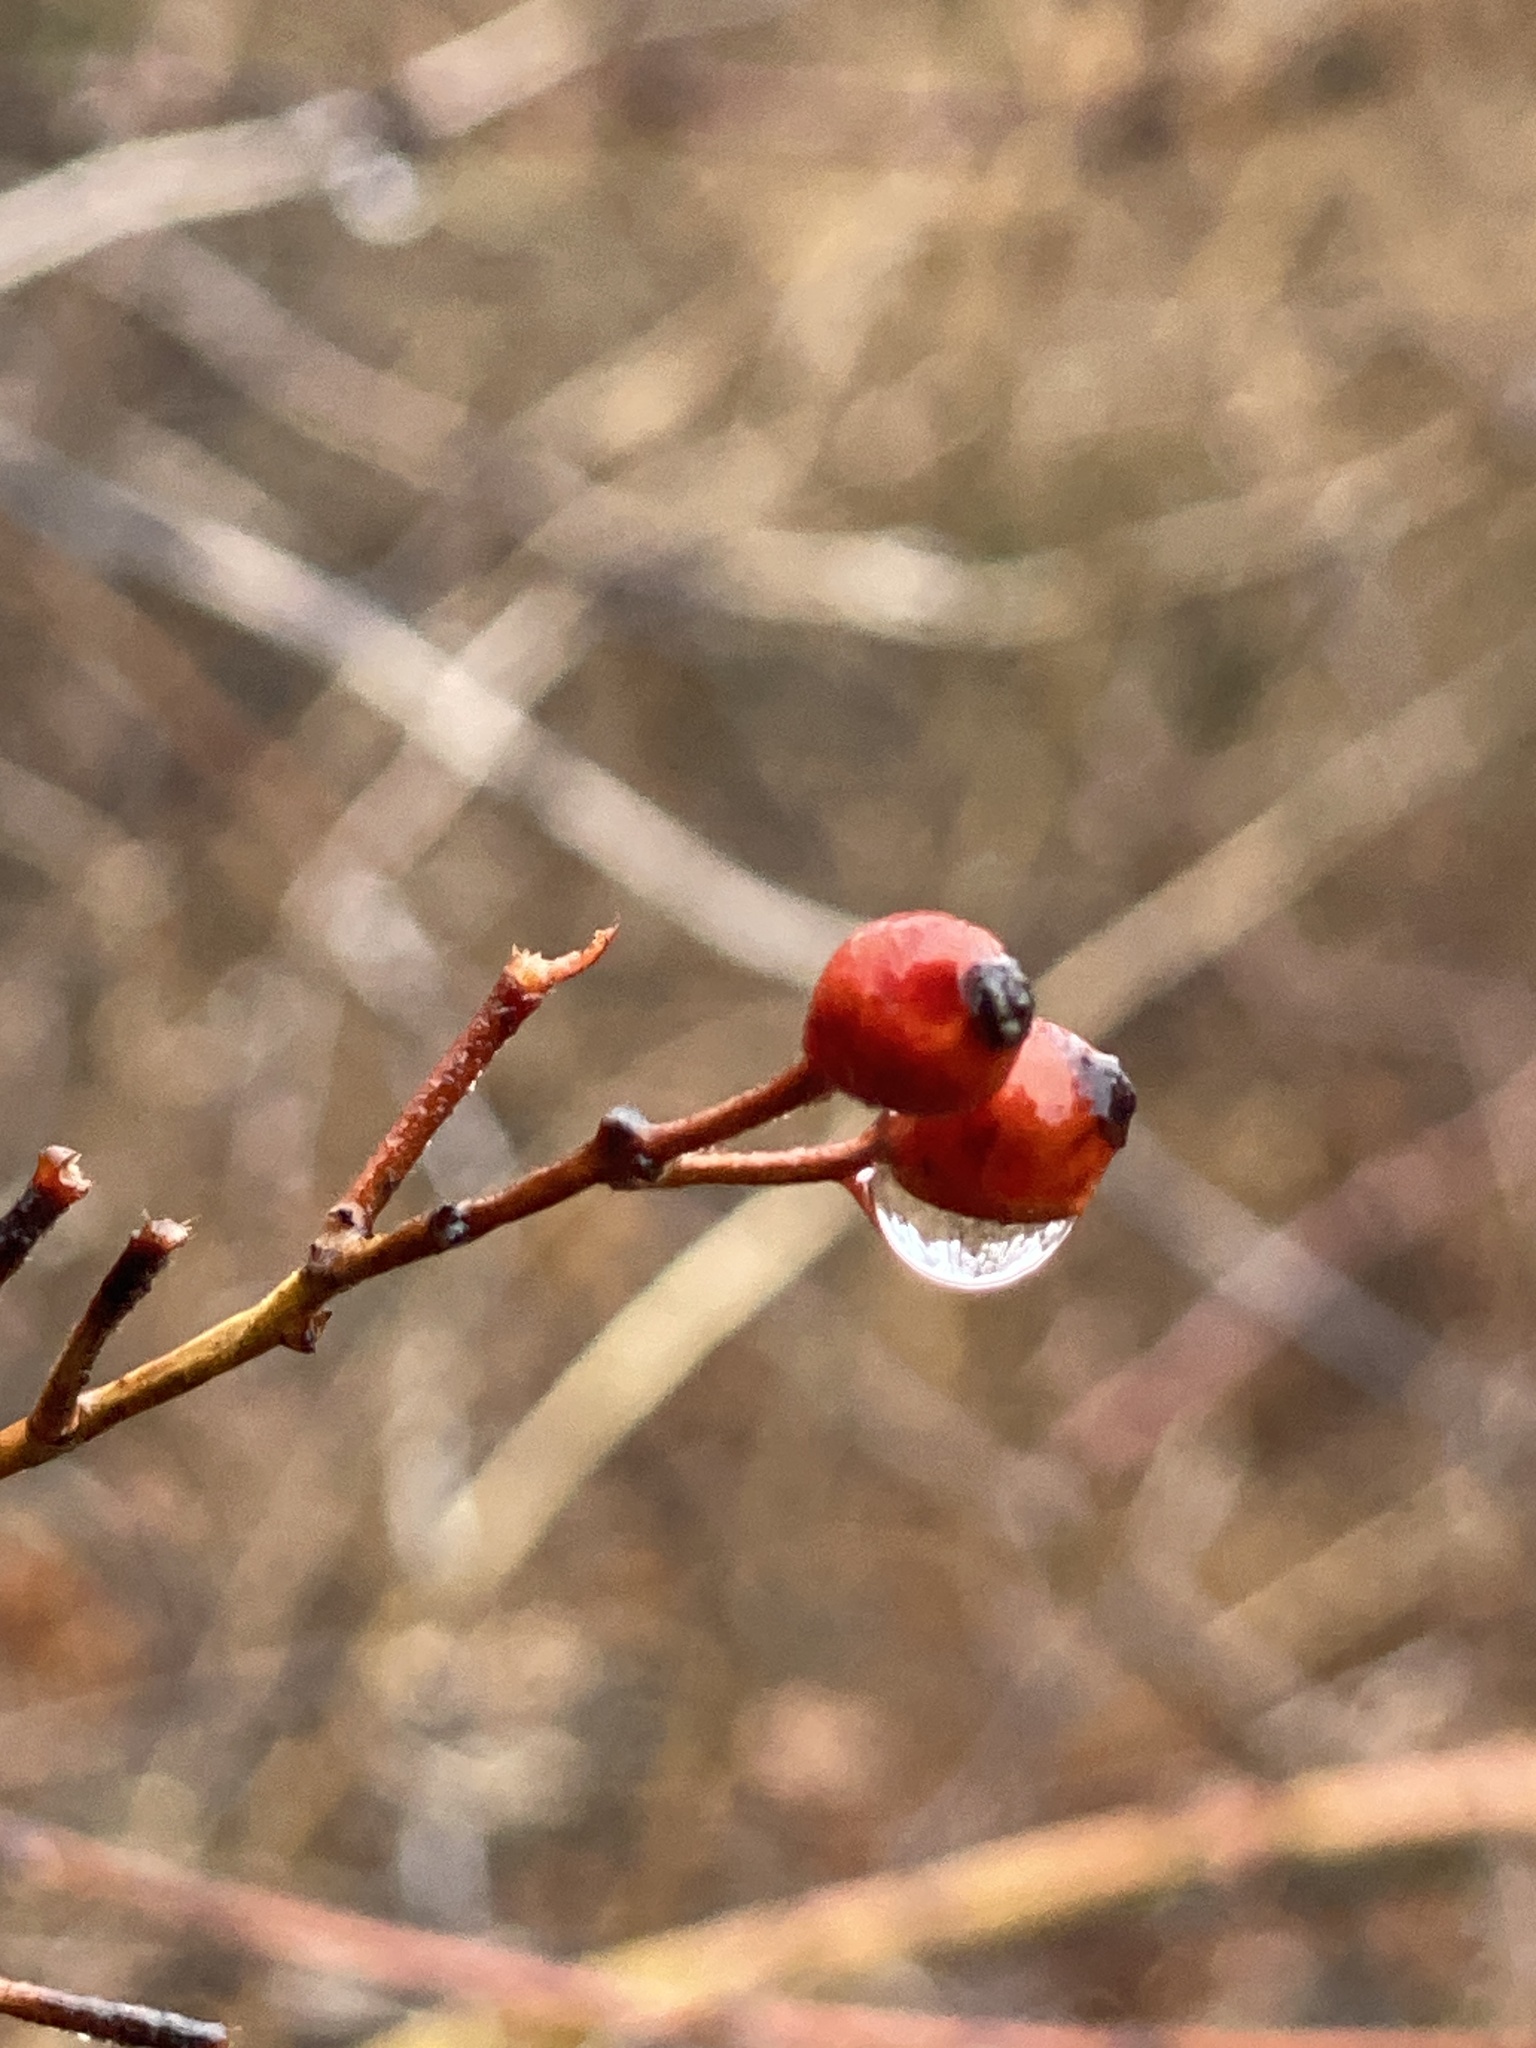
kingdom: Plantae
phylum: Tracheophyta
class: Magnoliopsida
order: Rosales
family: Rosaceae
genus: Rosa
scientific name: Rosa multiflora
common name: Multiflora rose
